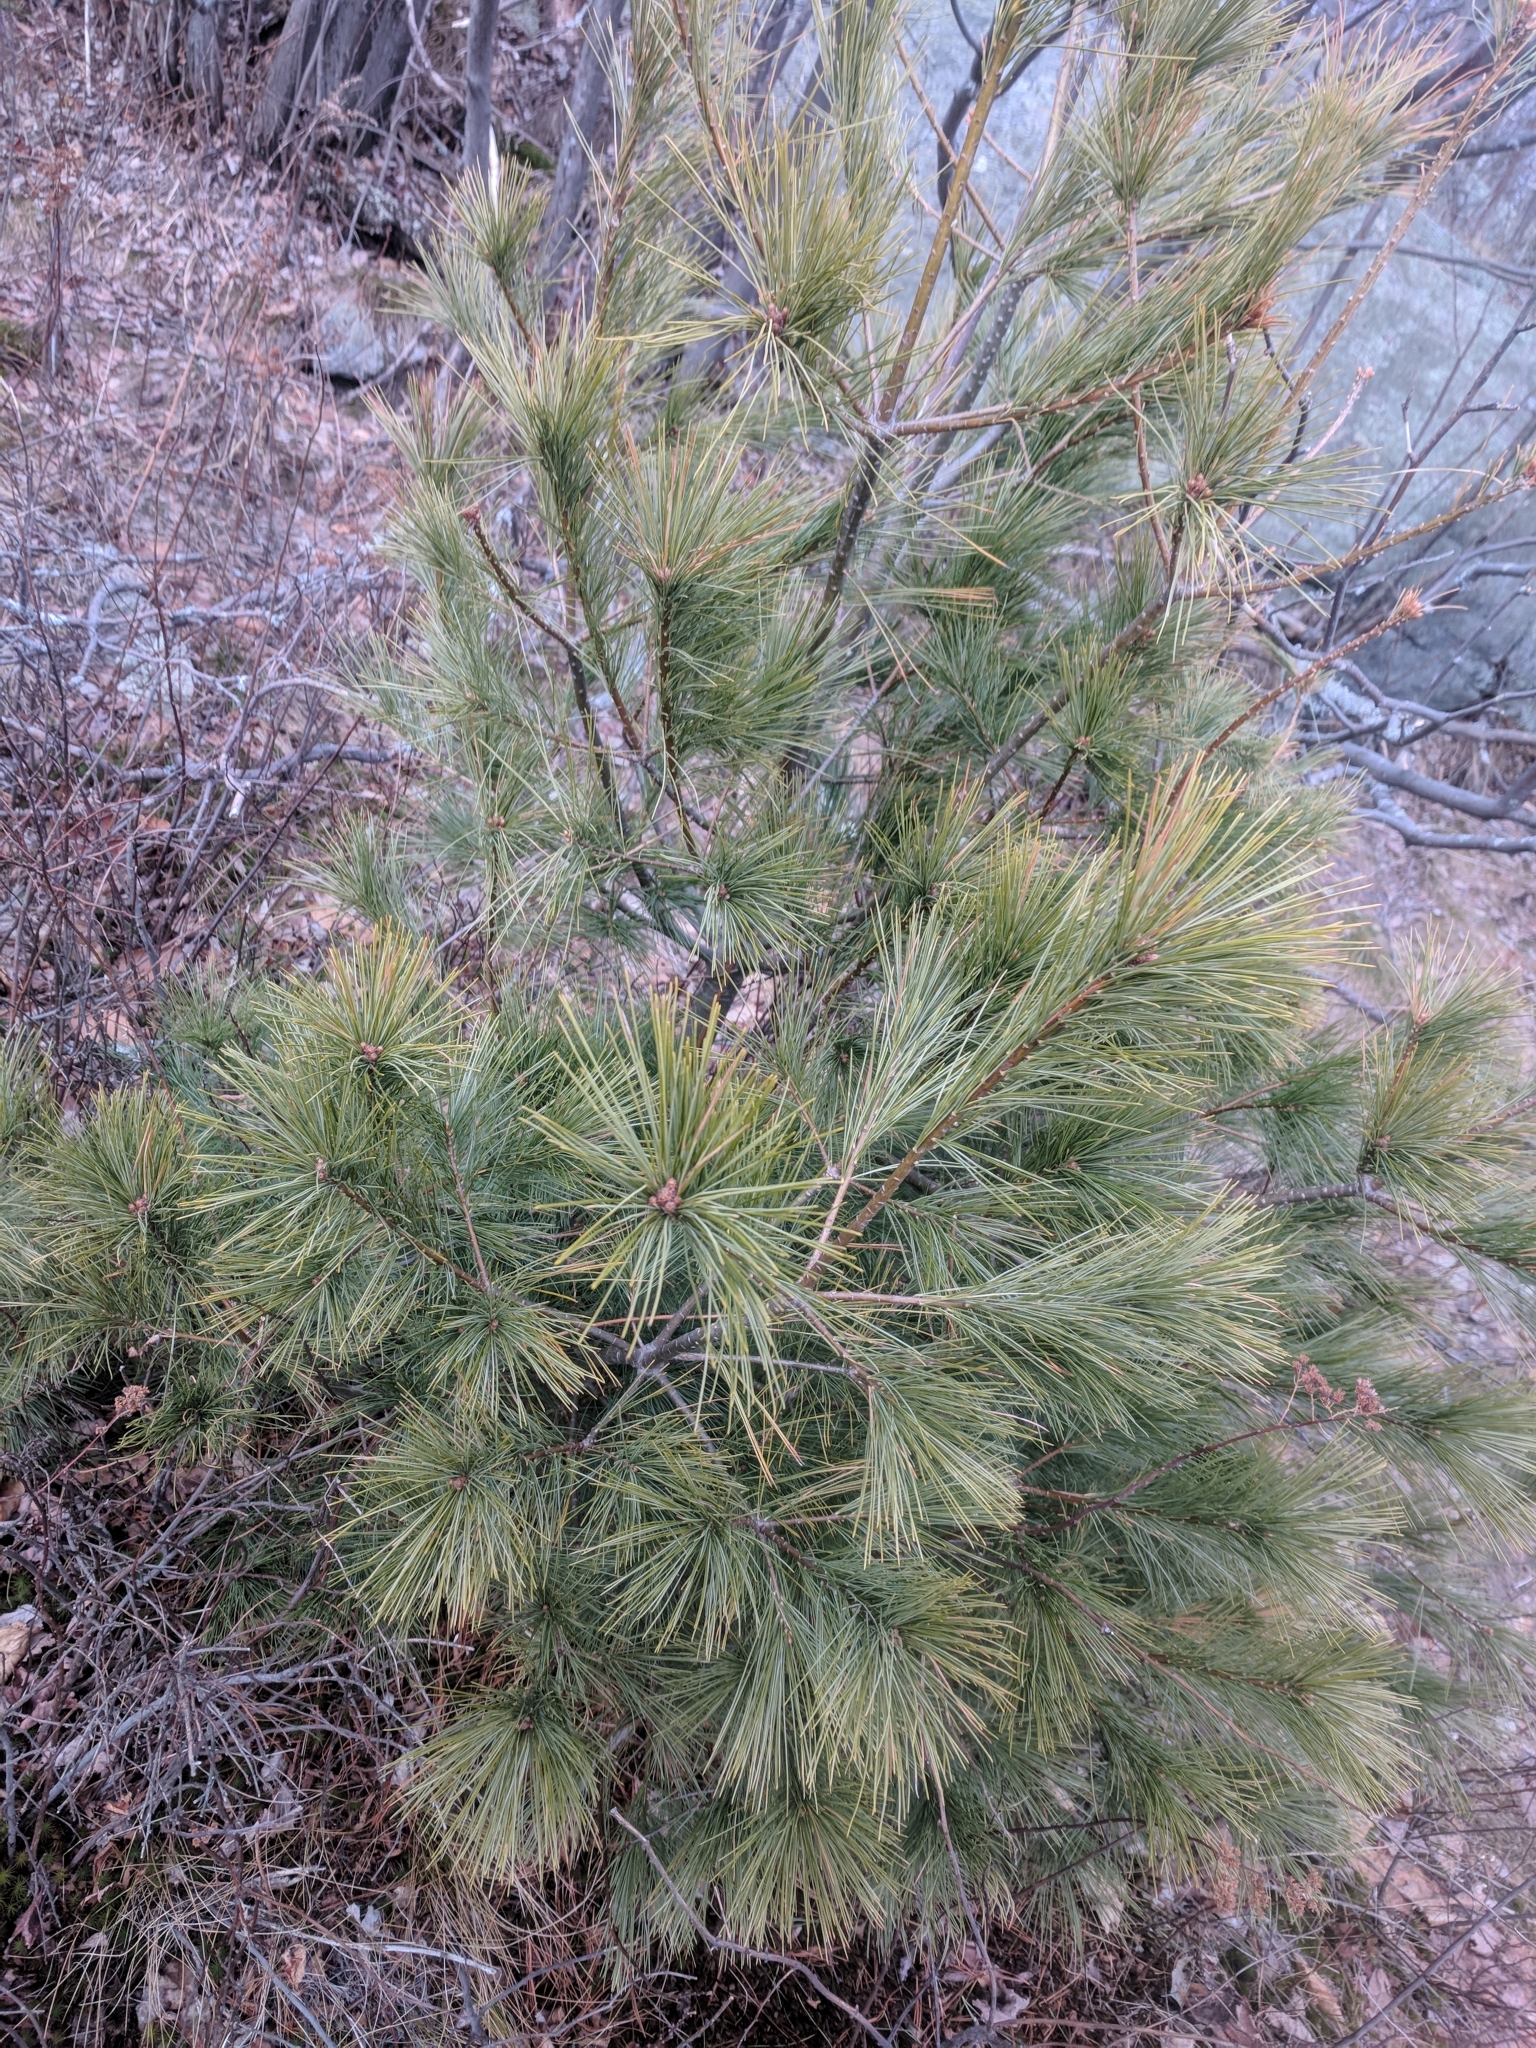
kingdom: Plantae
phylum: Tracheophyta
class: Pinopsida
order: Pinales
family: Pinaceae
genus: Pinus
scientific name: Pinus strobus
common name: Weymouth pine
